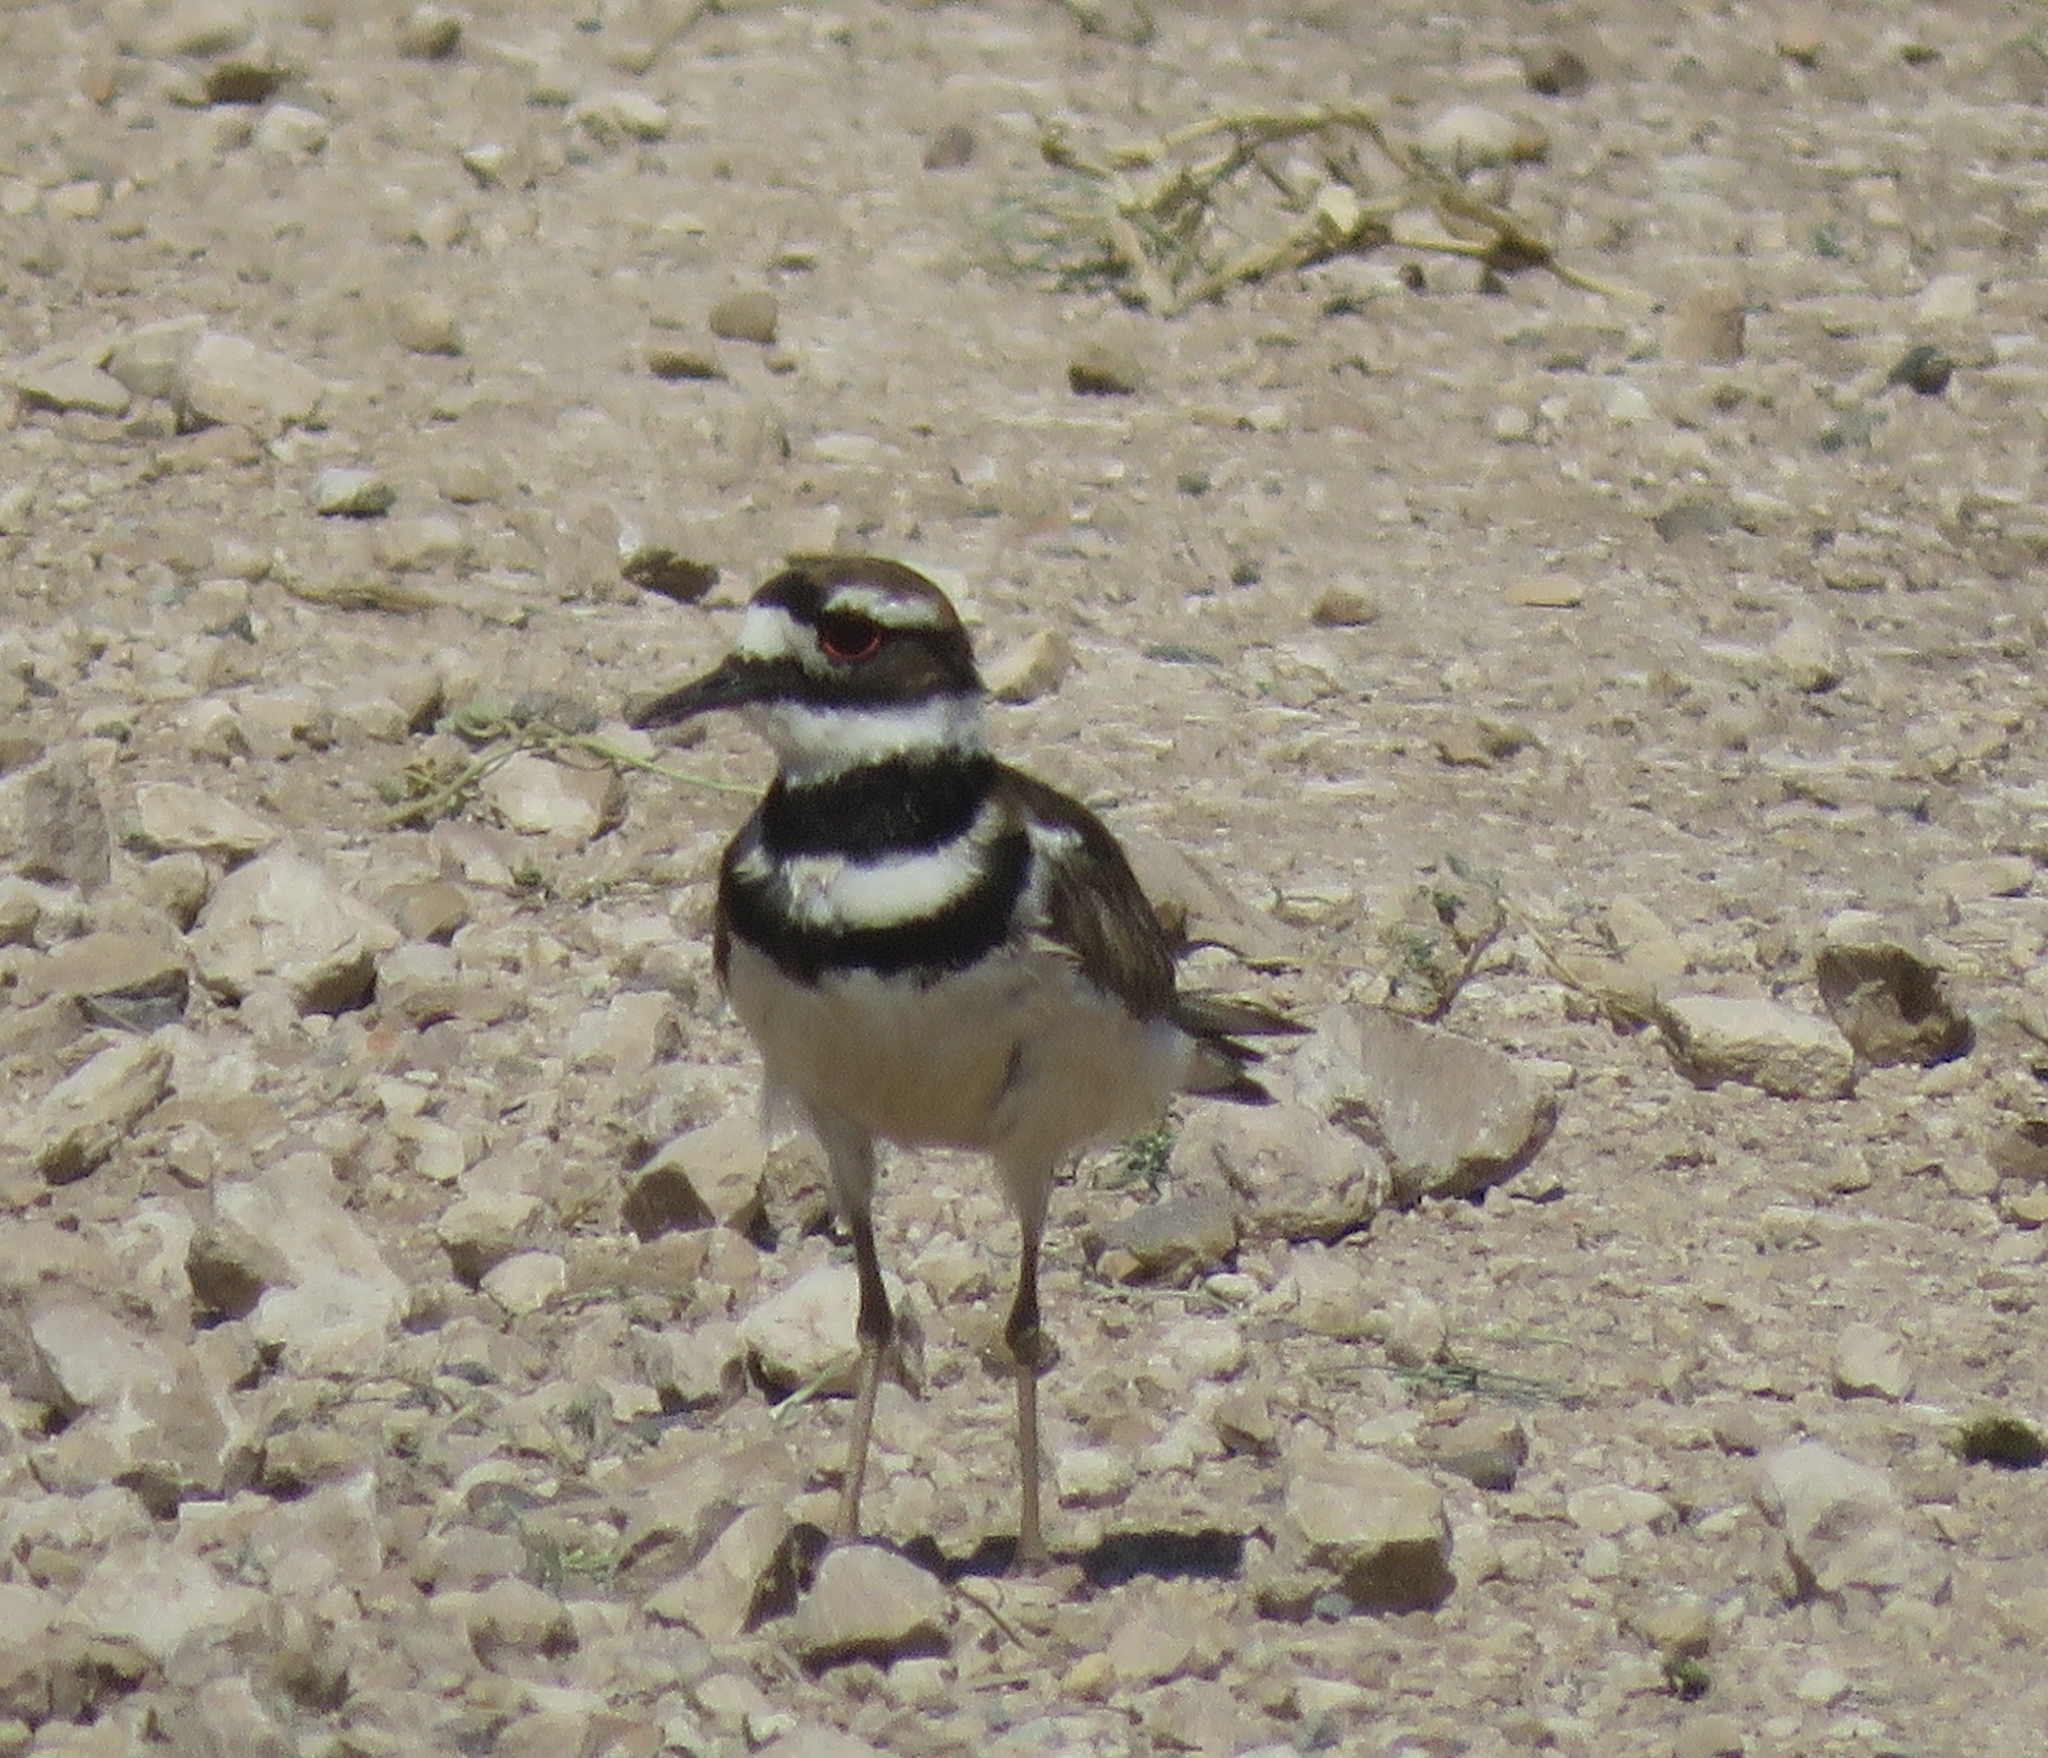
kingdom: Animalia
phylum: Chordata
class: Aves
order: Charadriiformes
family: Charadriidae
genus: Charadrius
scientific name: Charadrius vociferus
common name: Killdeer
